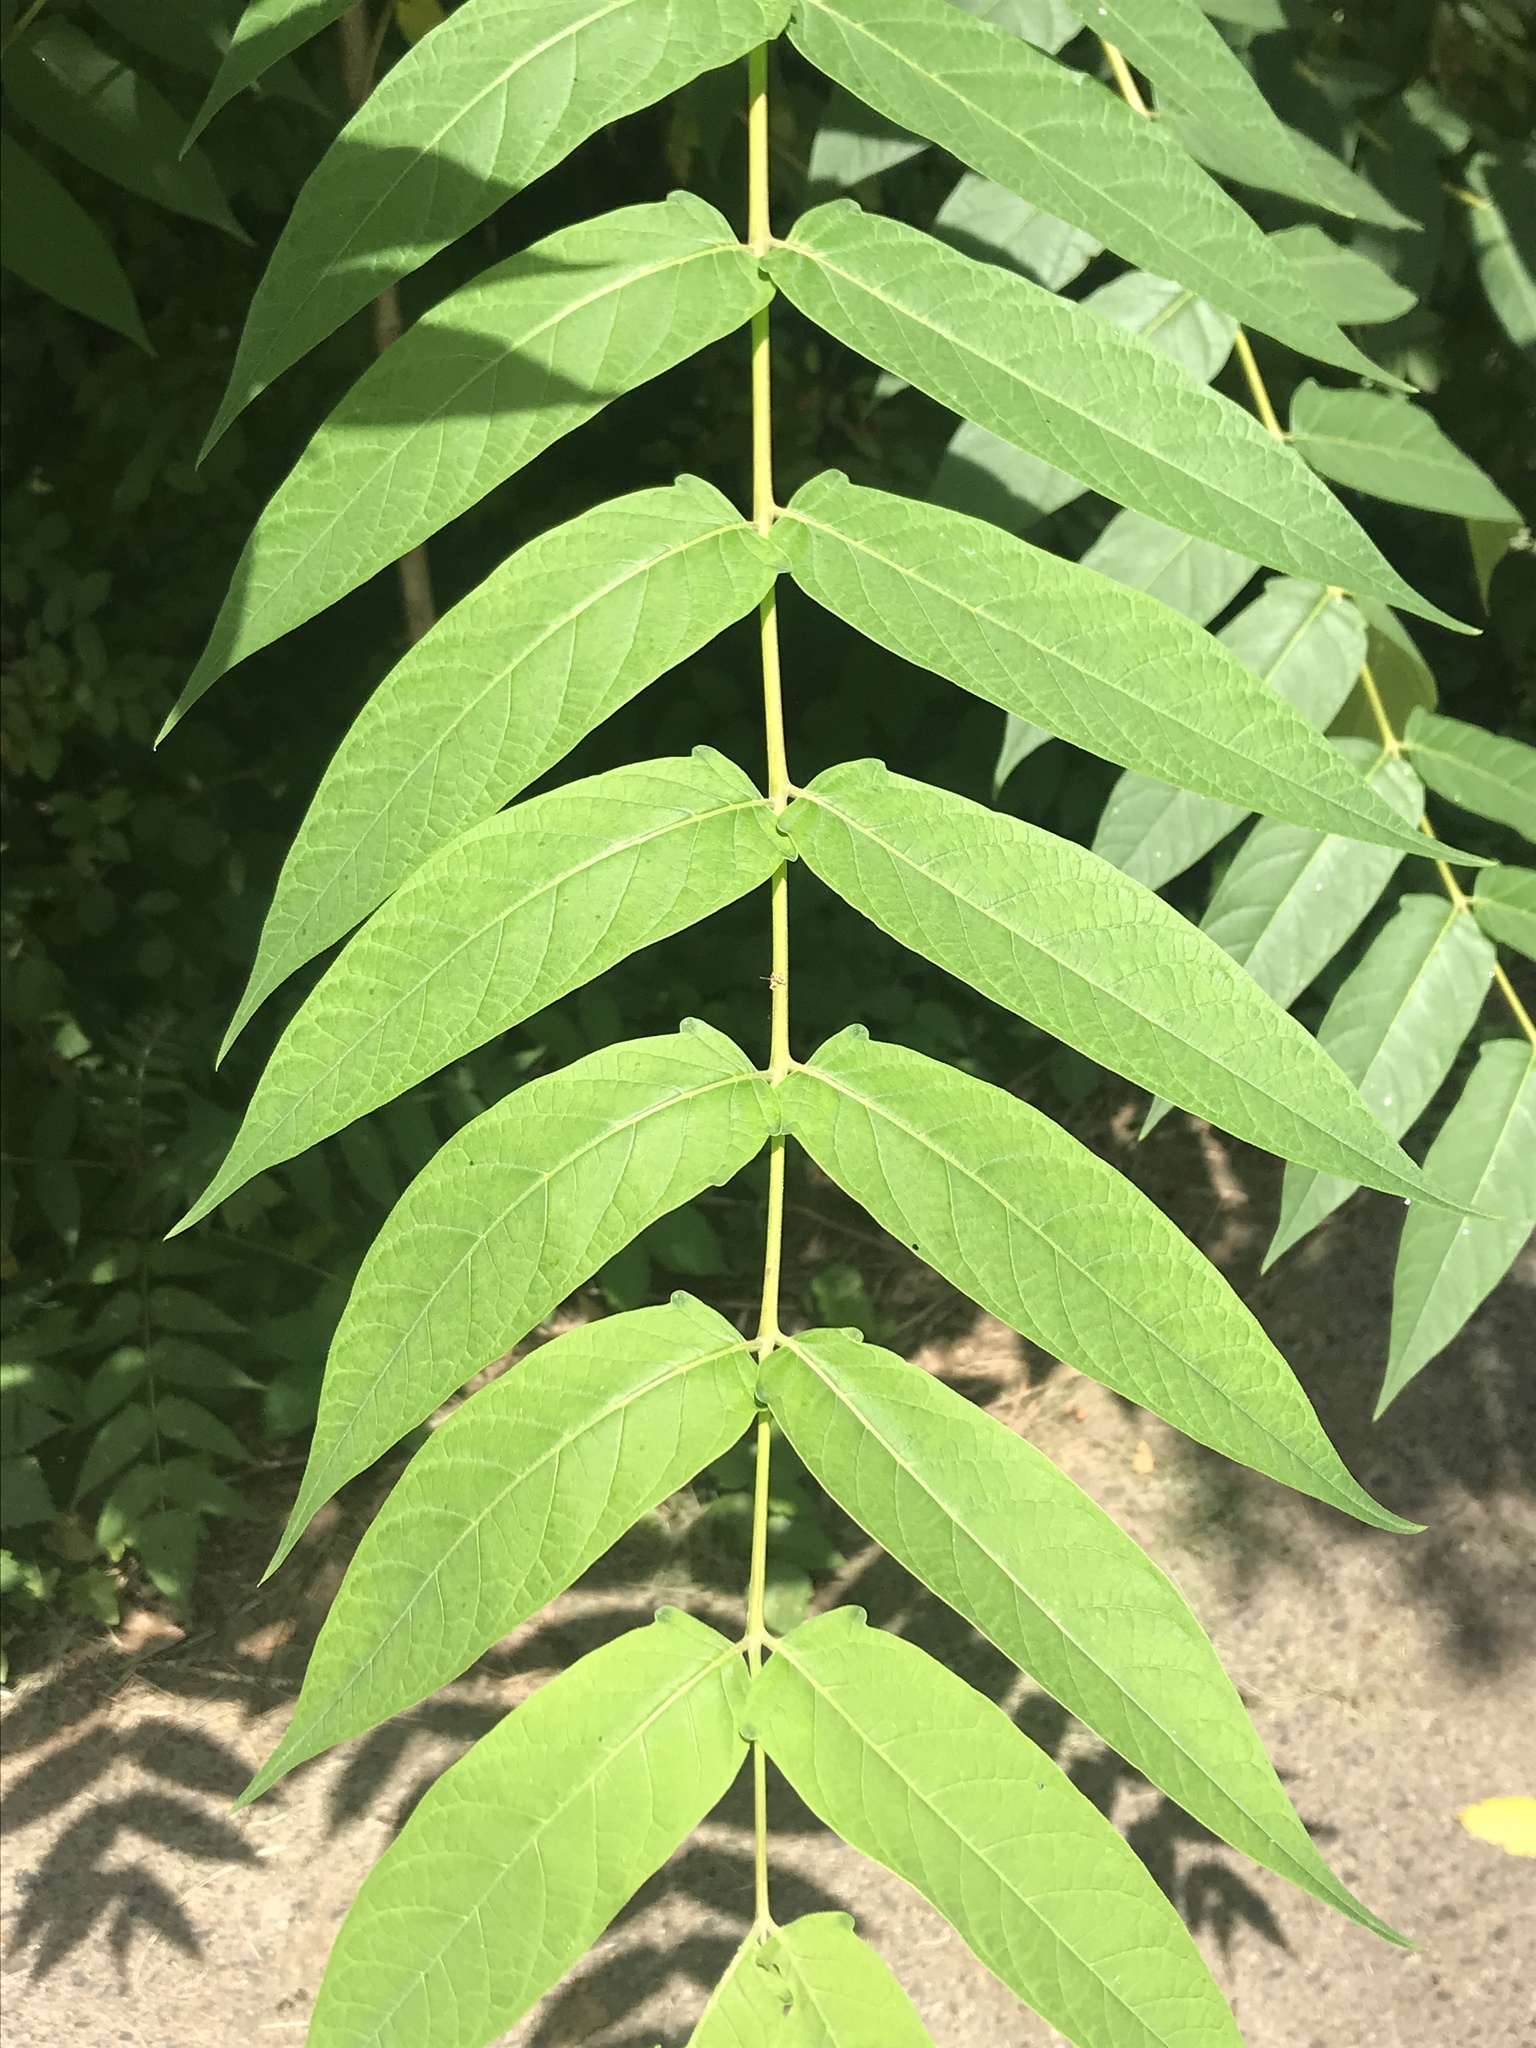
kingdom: Plantae
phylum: Tracheophyta
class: Magnoliopsida
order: Sapindales
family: Simaroubaceae
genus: Ailanthus
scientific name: Ailanthus altissima
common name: Tree-of-heaven
